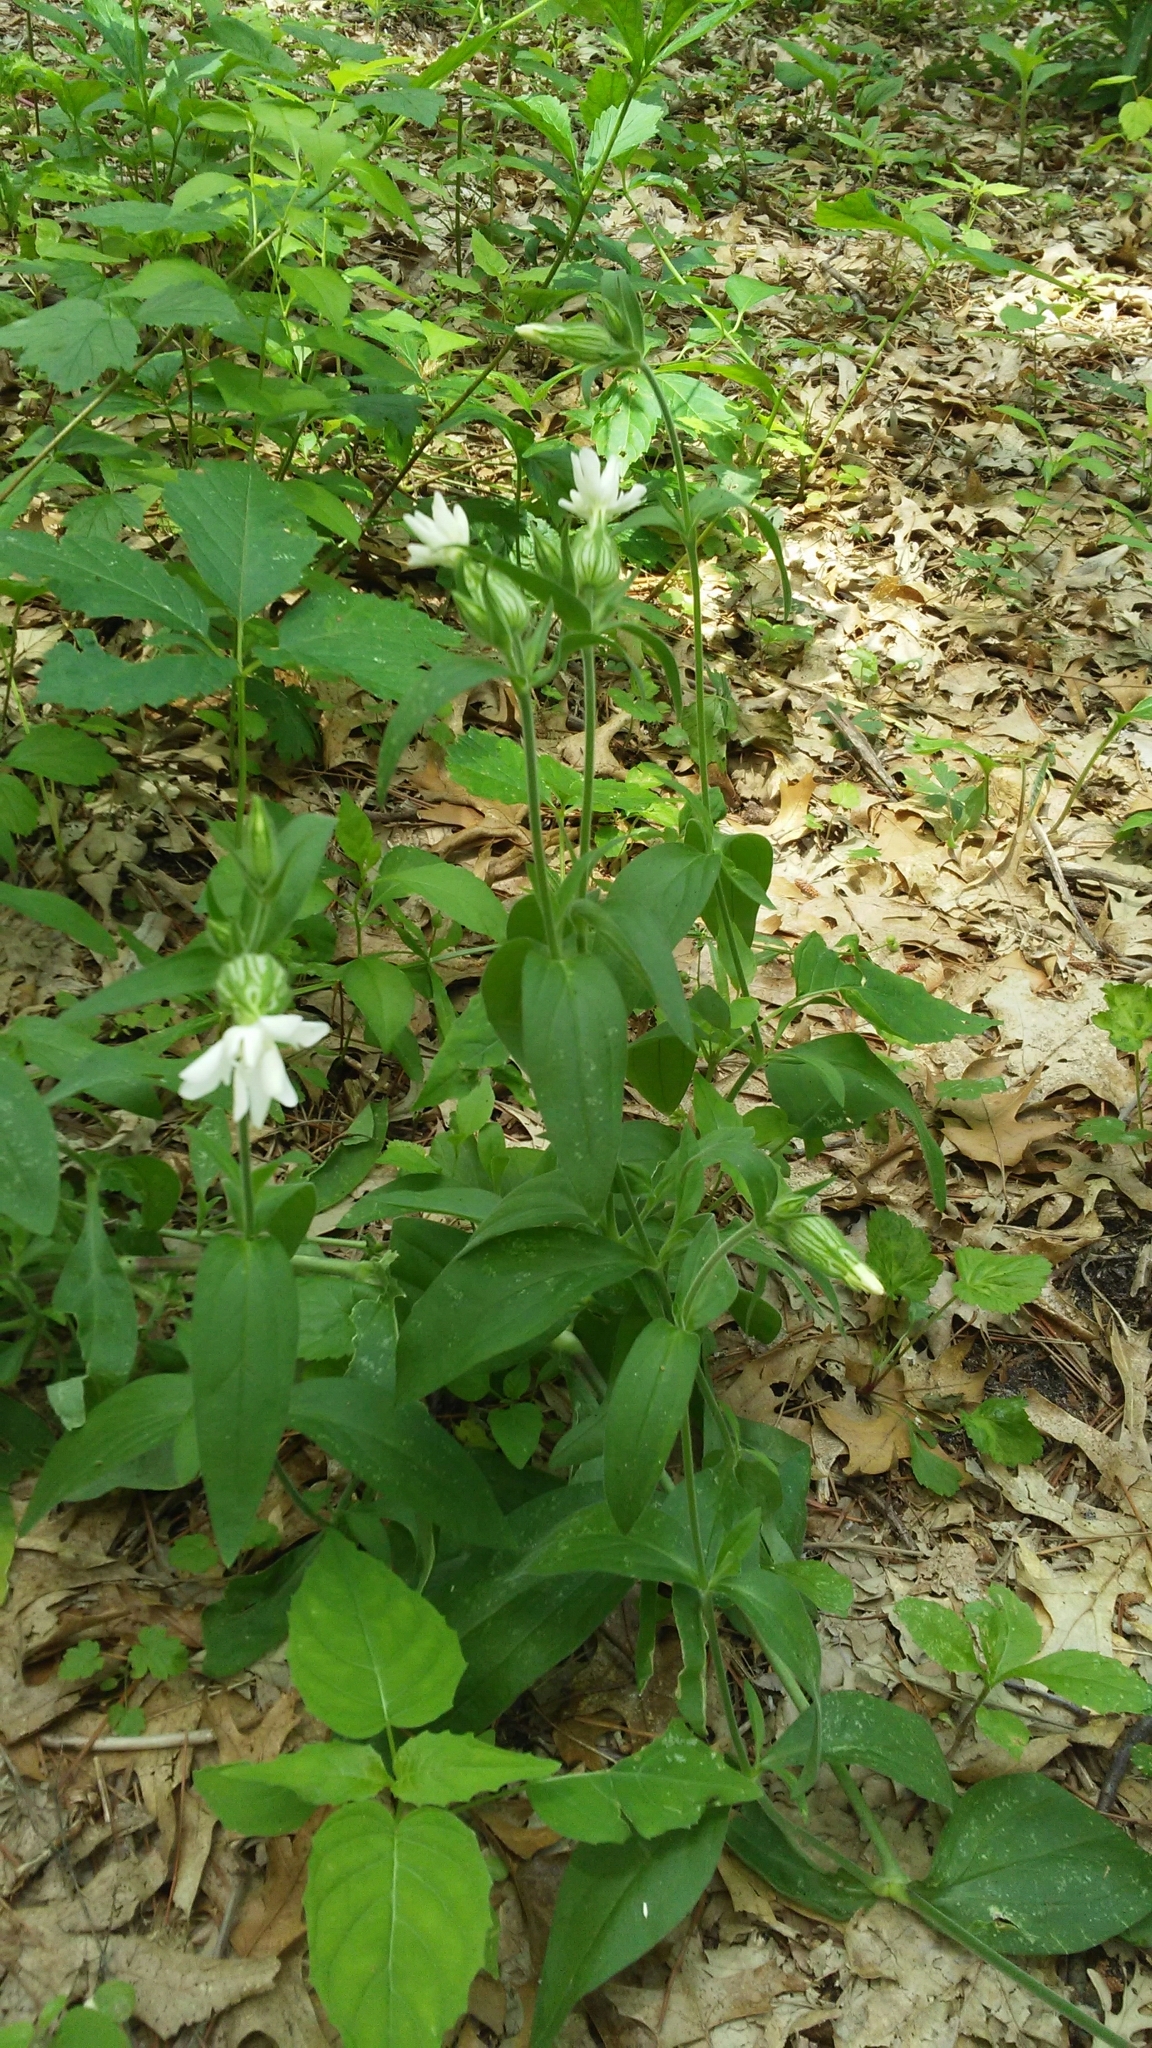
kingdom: Plantae
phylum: Tracheophyta
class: Magnoliopsida
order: Caryophyllales
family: Caryophyllaceae
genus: Silene
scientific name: Silene latifolia
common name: White campion
